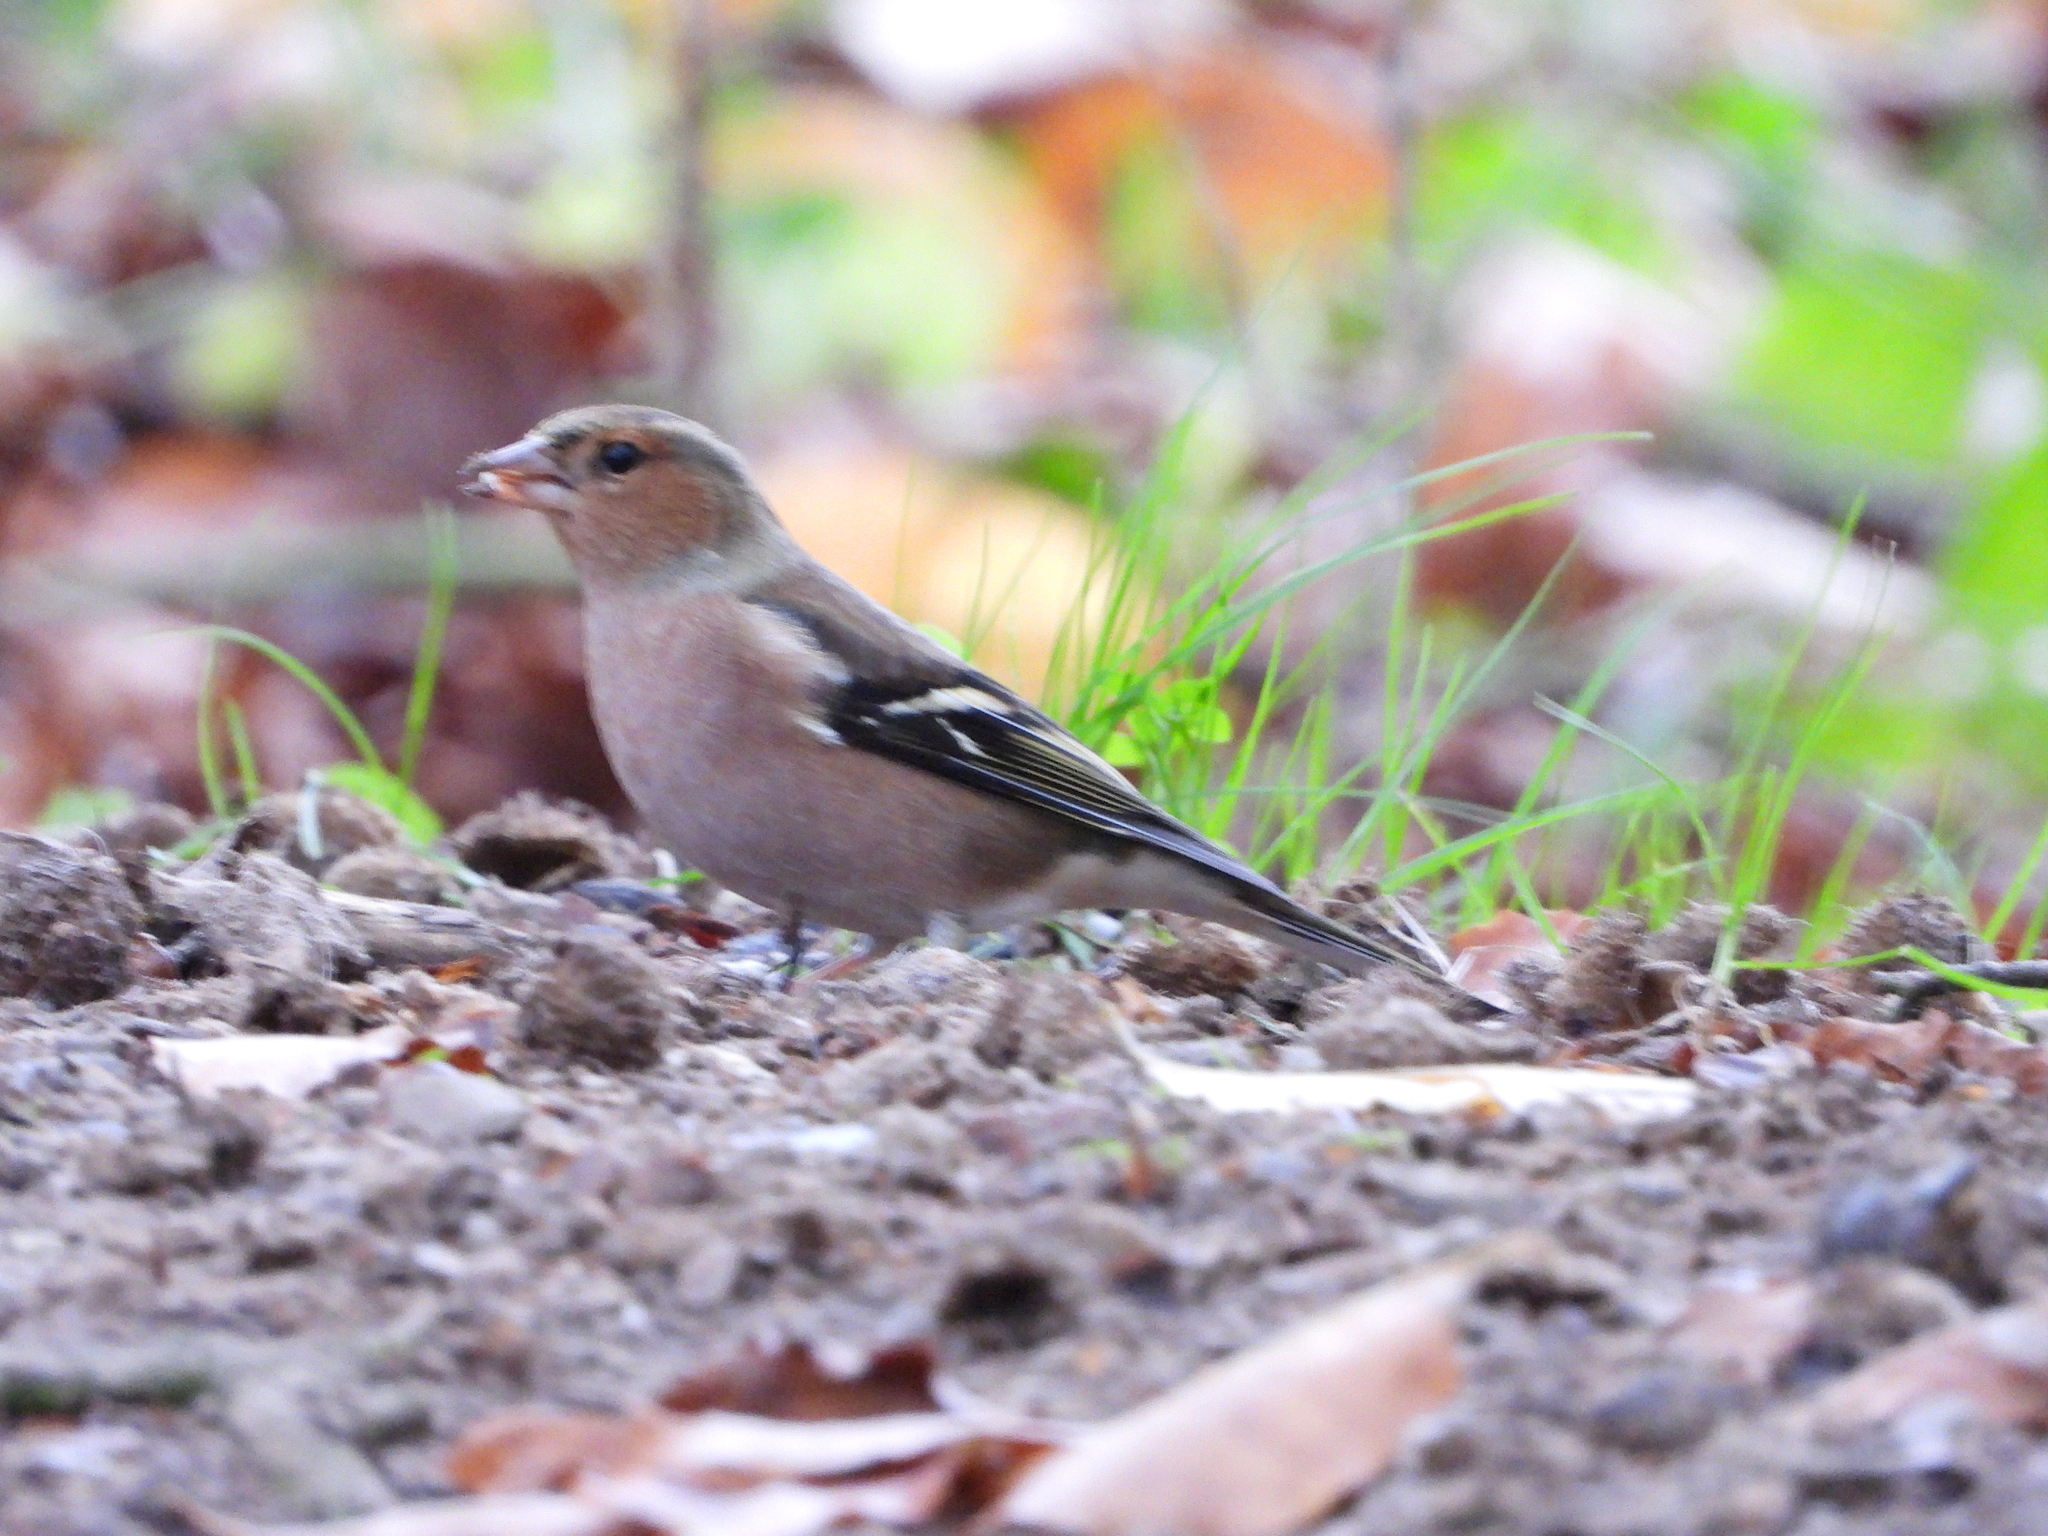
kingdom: Animalia
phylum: Chordata
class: Aves
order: Passeriformes
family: Fringillidae
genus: Fringilla
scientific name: Fringilla coelebs
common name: Common chaffinch
